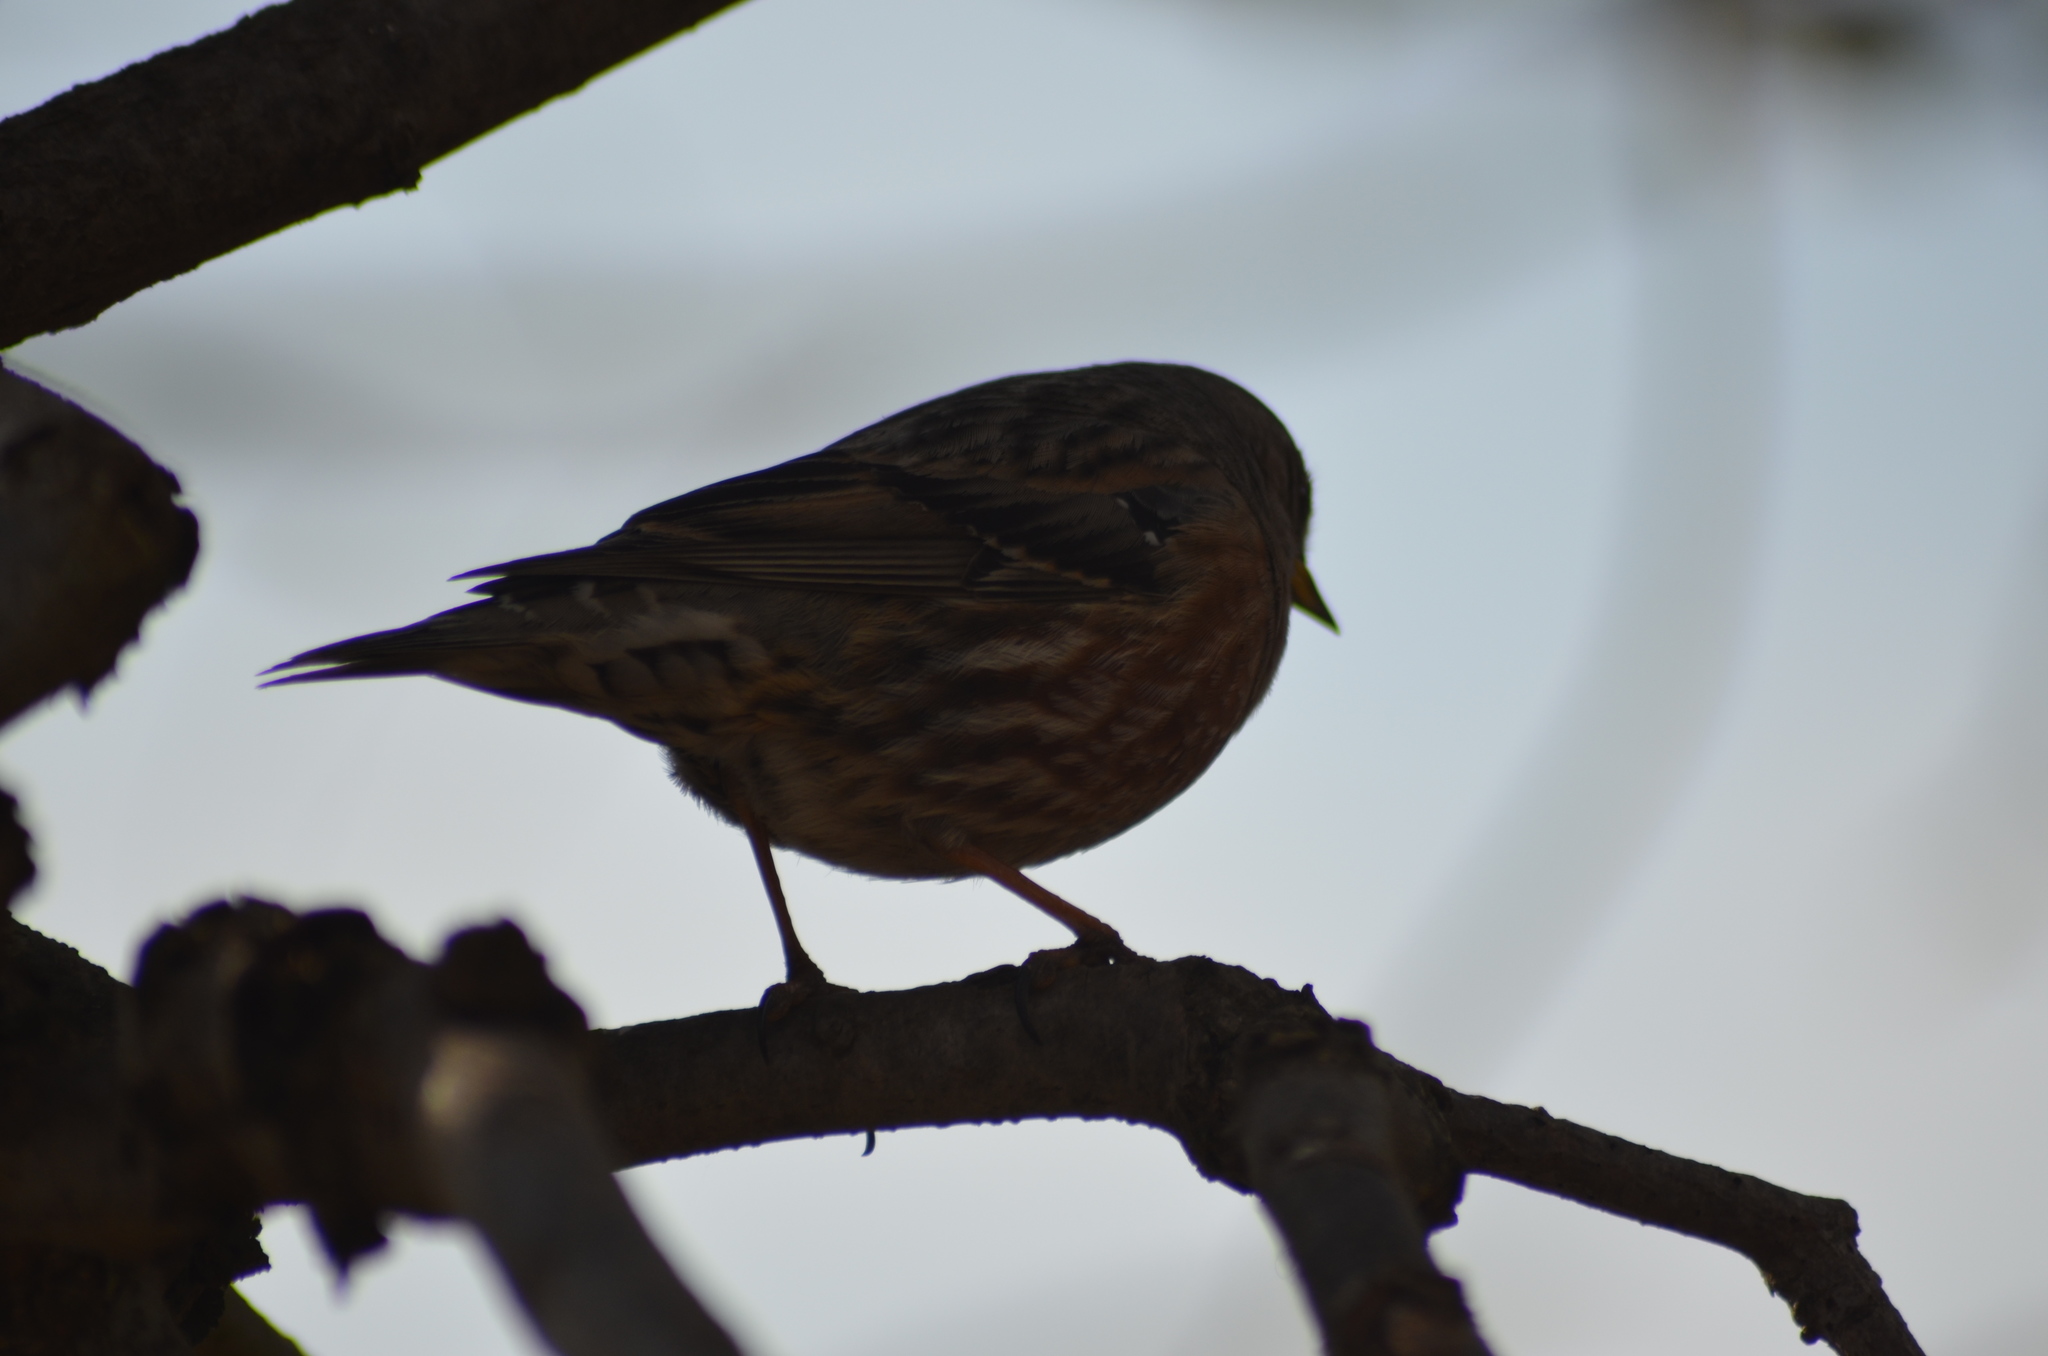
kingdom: Animalia
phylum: Chordata
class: Aves
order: Passeriformes
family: Prunellidae
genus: Prunella
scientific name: Prunella collaris
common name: Alpine accentor
